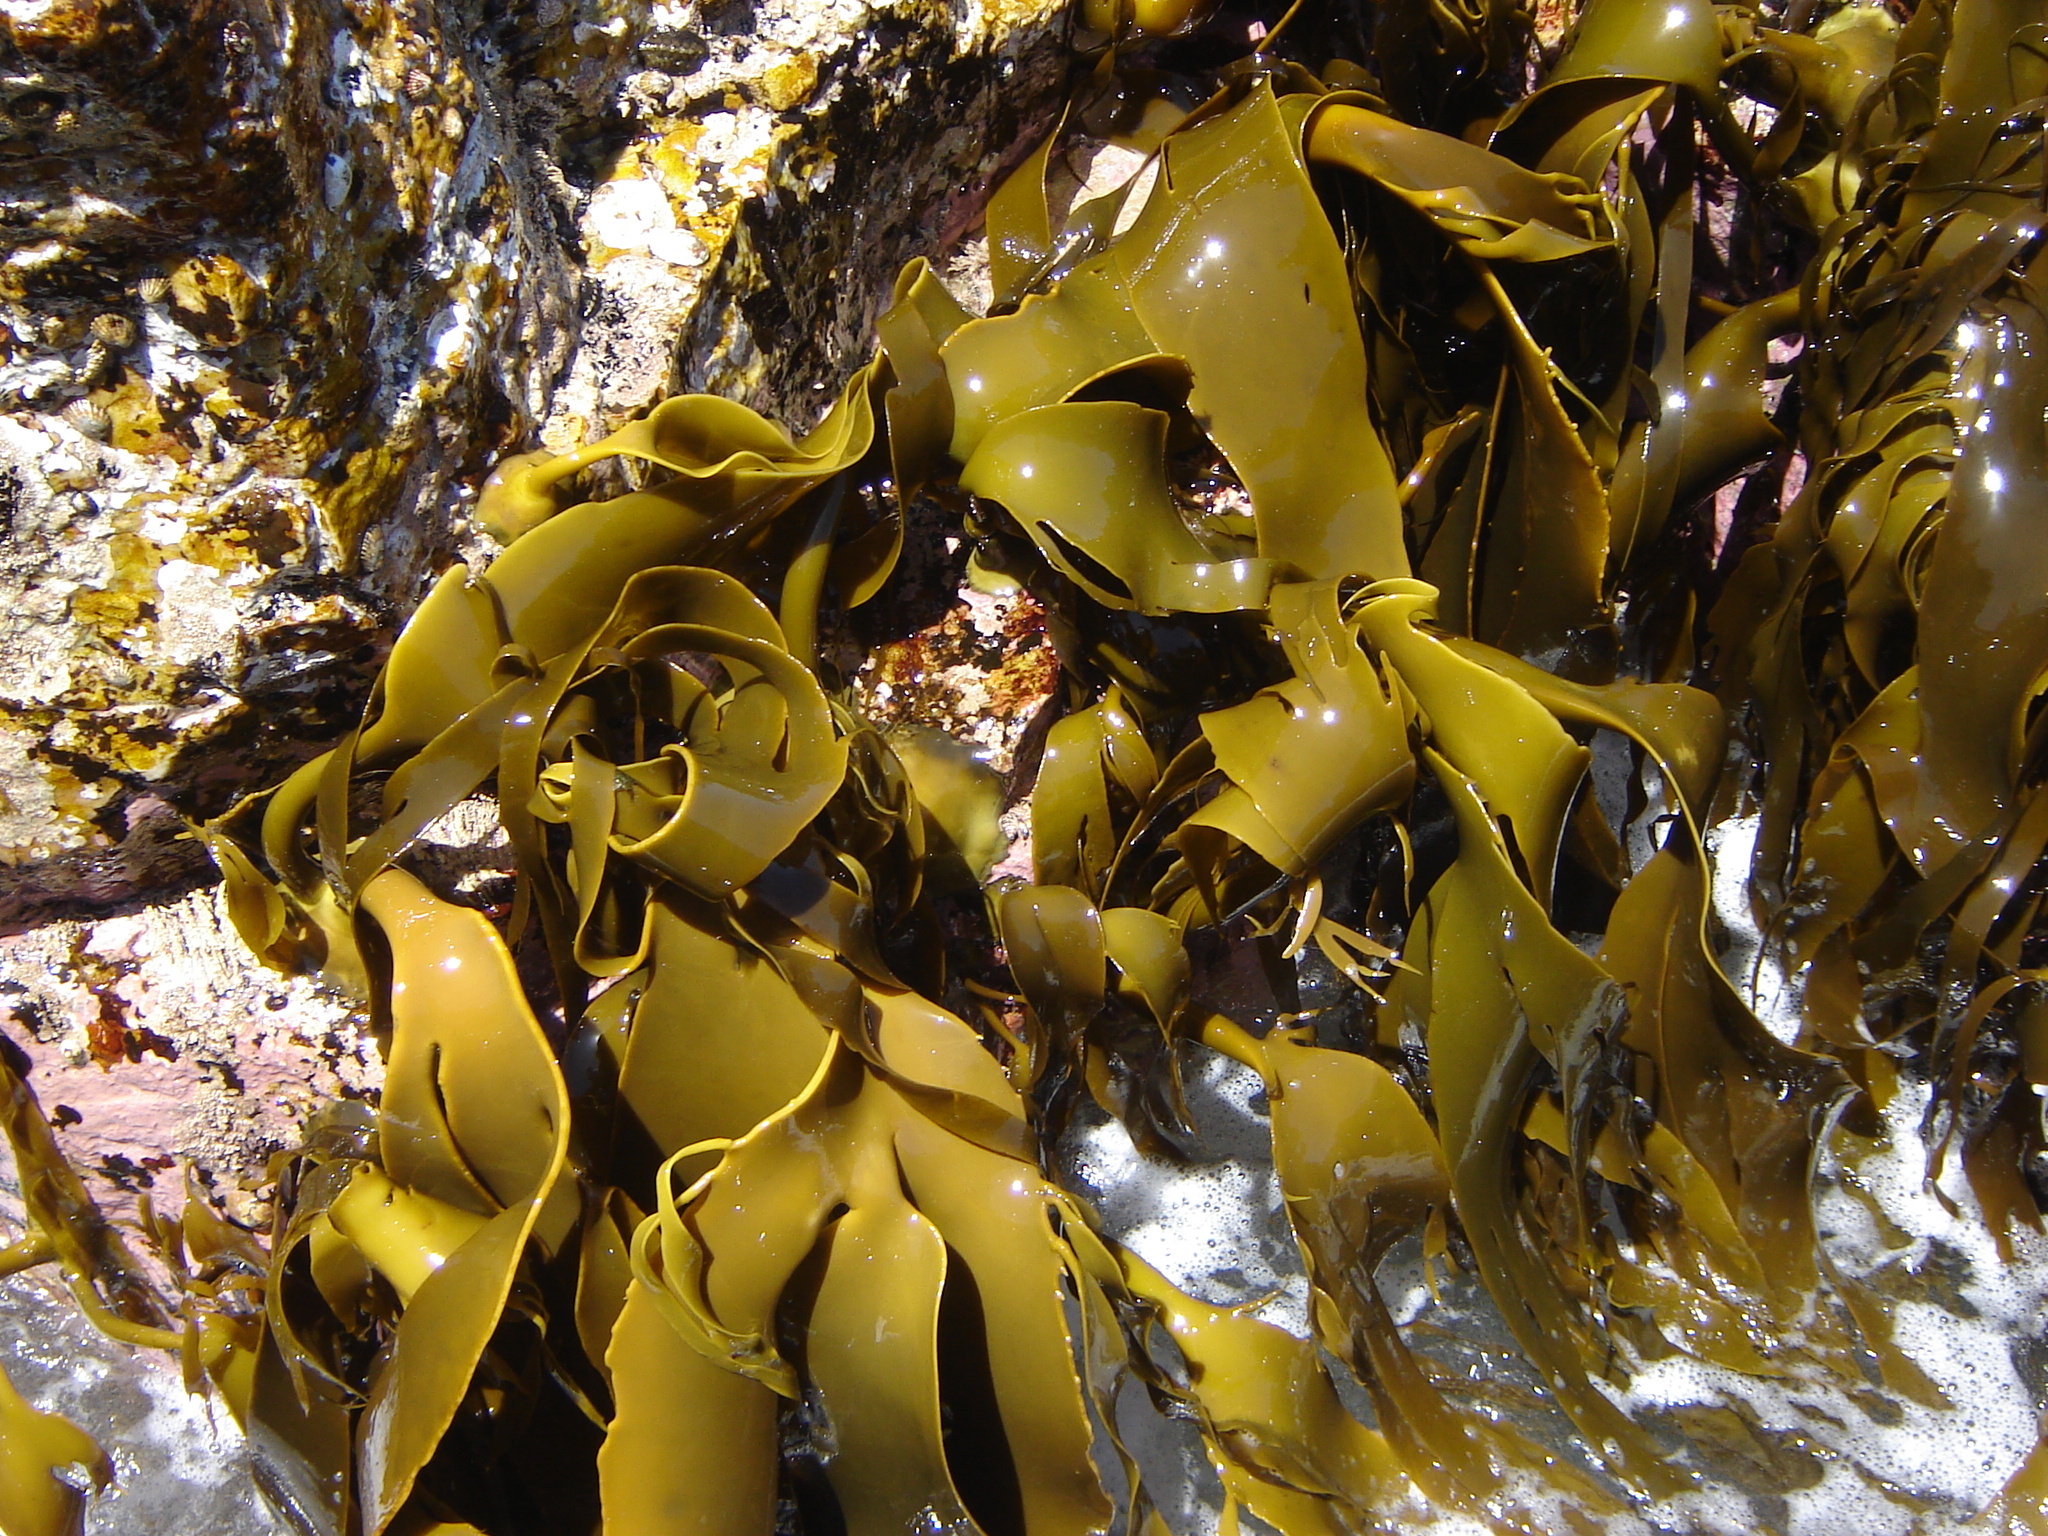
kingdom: Chromista
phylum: Ochrophyta
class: Phaeophyceae
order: Fucales
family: Durvillaeaceae
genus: Durvillaea
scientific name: Durvillaea
